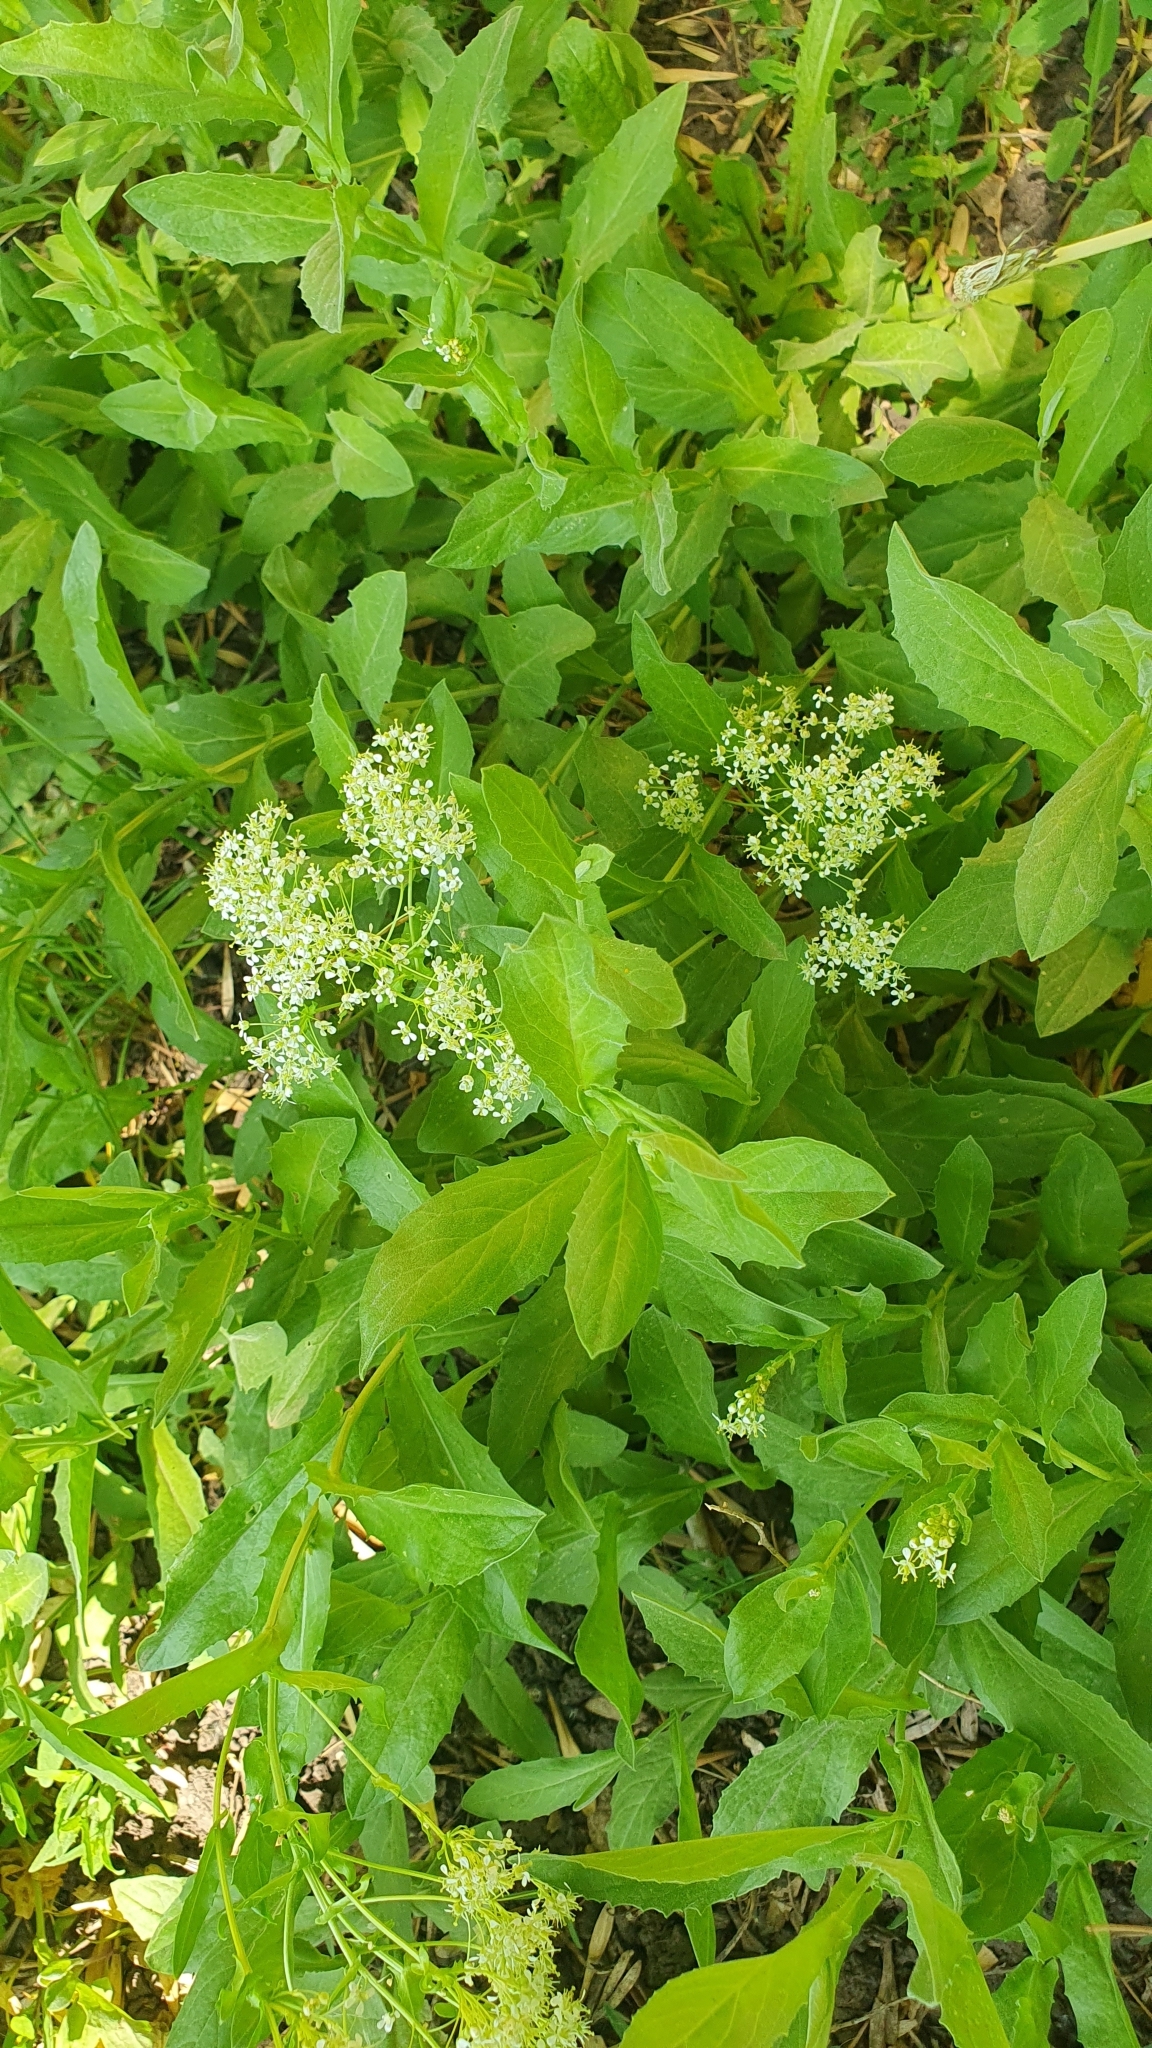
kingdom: Plantae
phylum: Tracheophyta
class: Magnoliopsida
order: Brassicales
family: Brassicaceae
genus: Lepidium
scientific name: Lepidium draba
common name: Hoary cress
